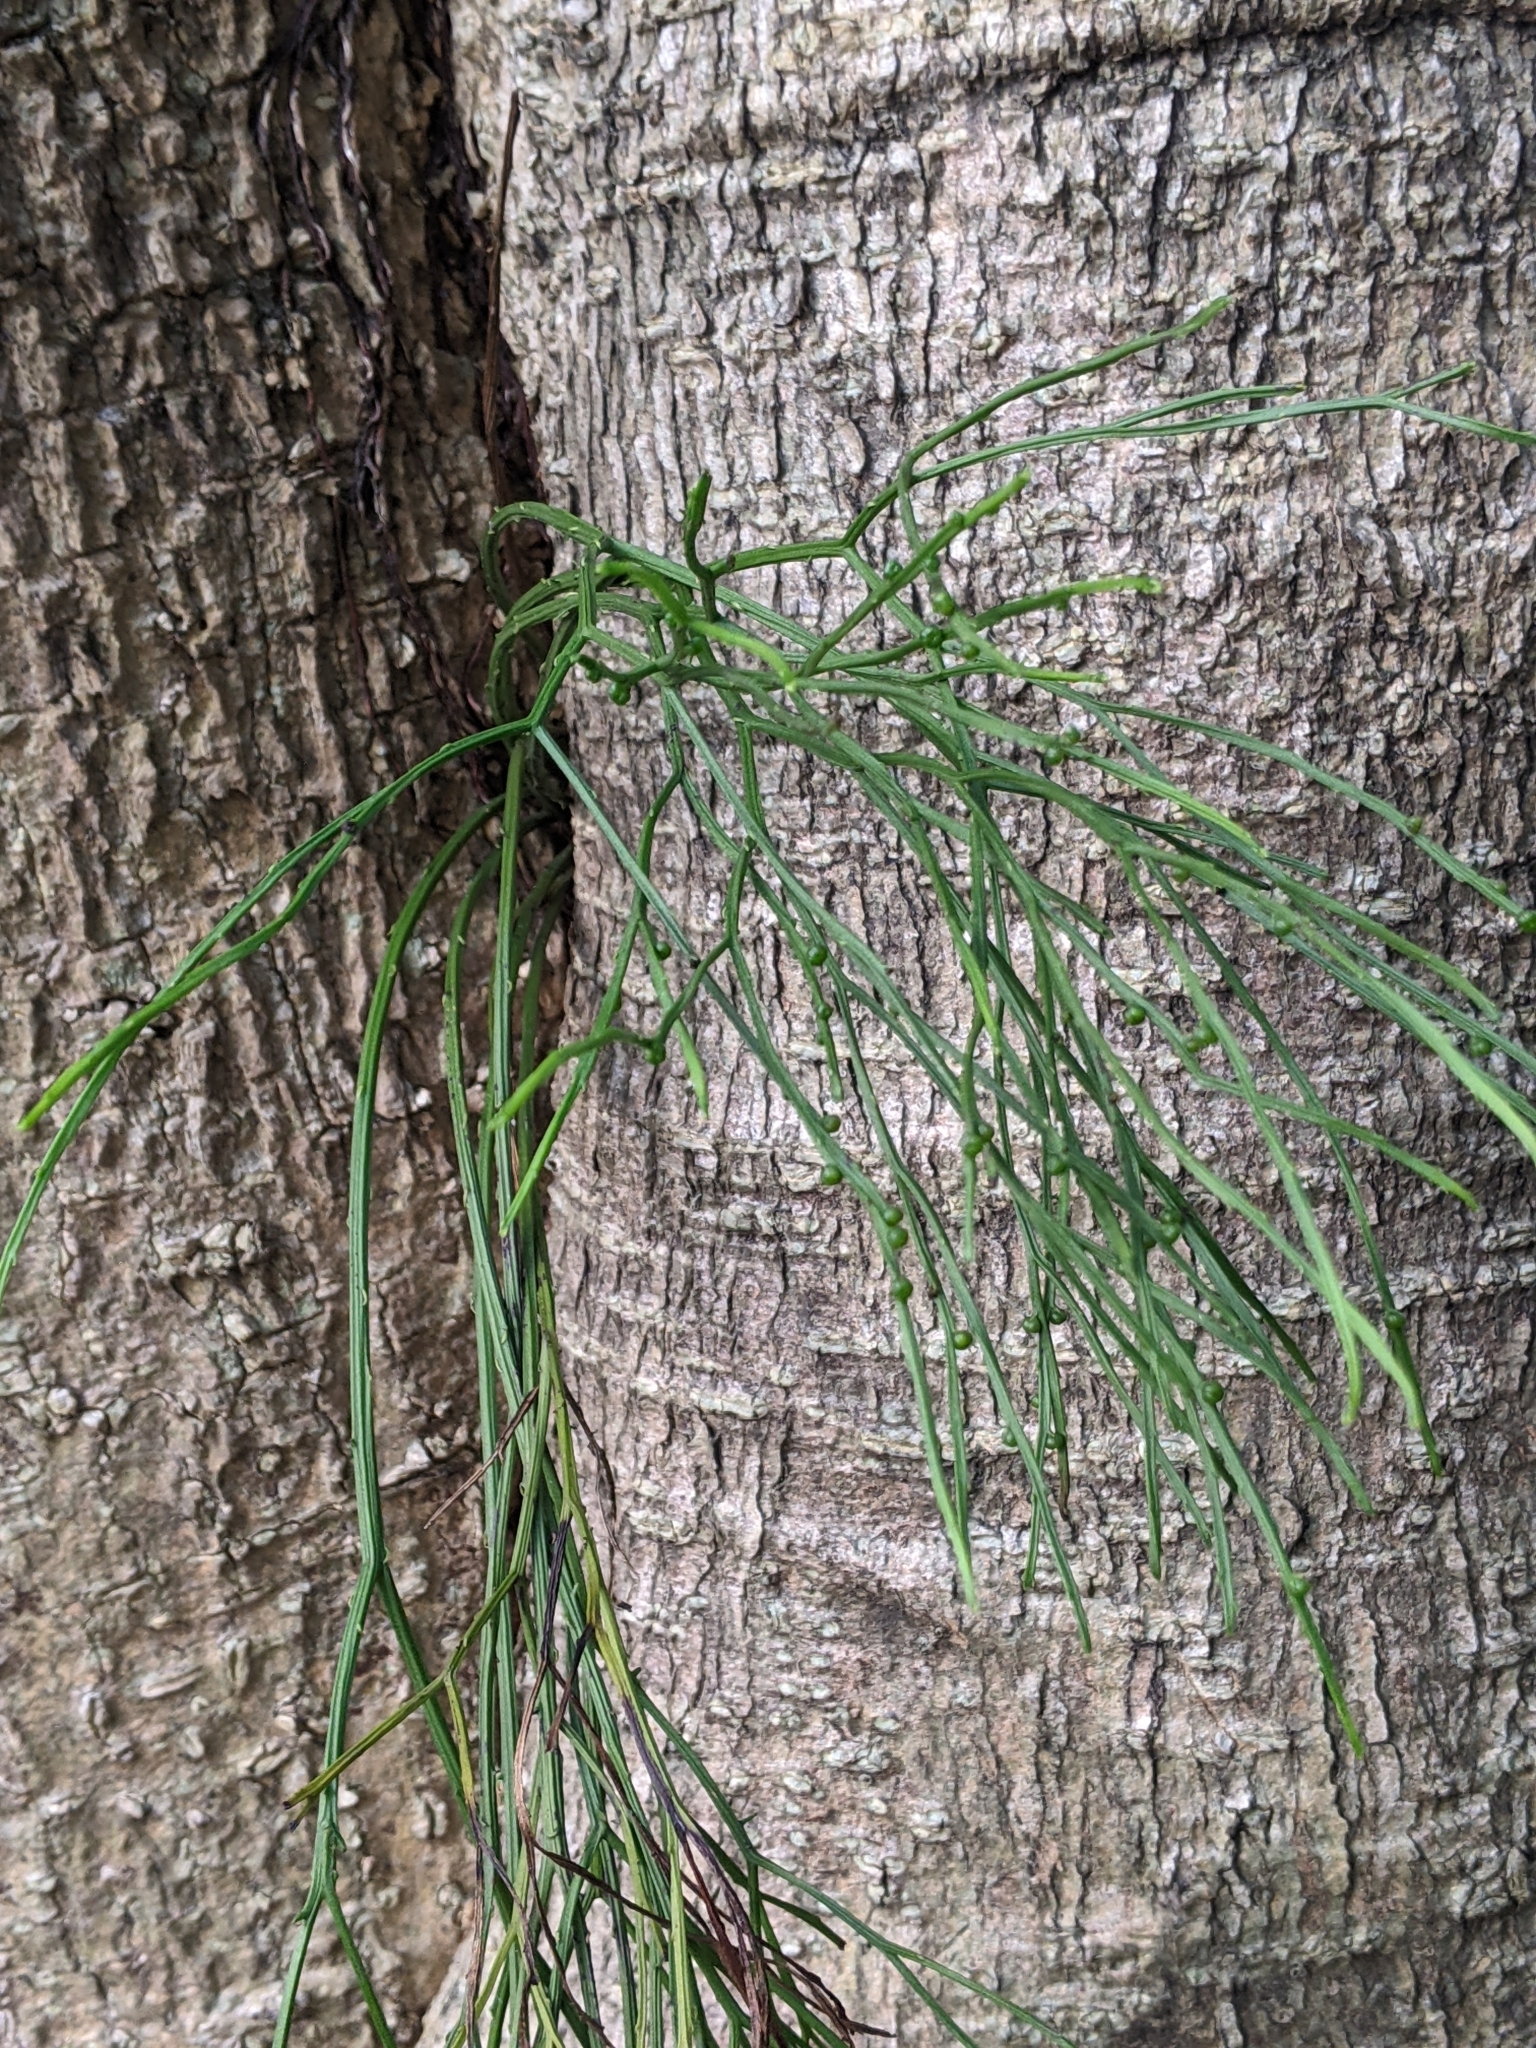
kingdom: Plantae
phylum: Tracheophyta
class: Polypodiopsida
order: Psilotales
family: Psilotaceae
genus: Psilotum
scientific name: Psilotum nudum
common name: Skeleton fork fern
